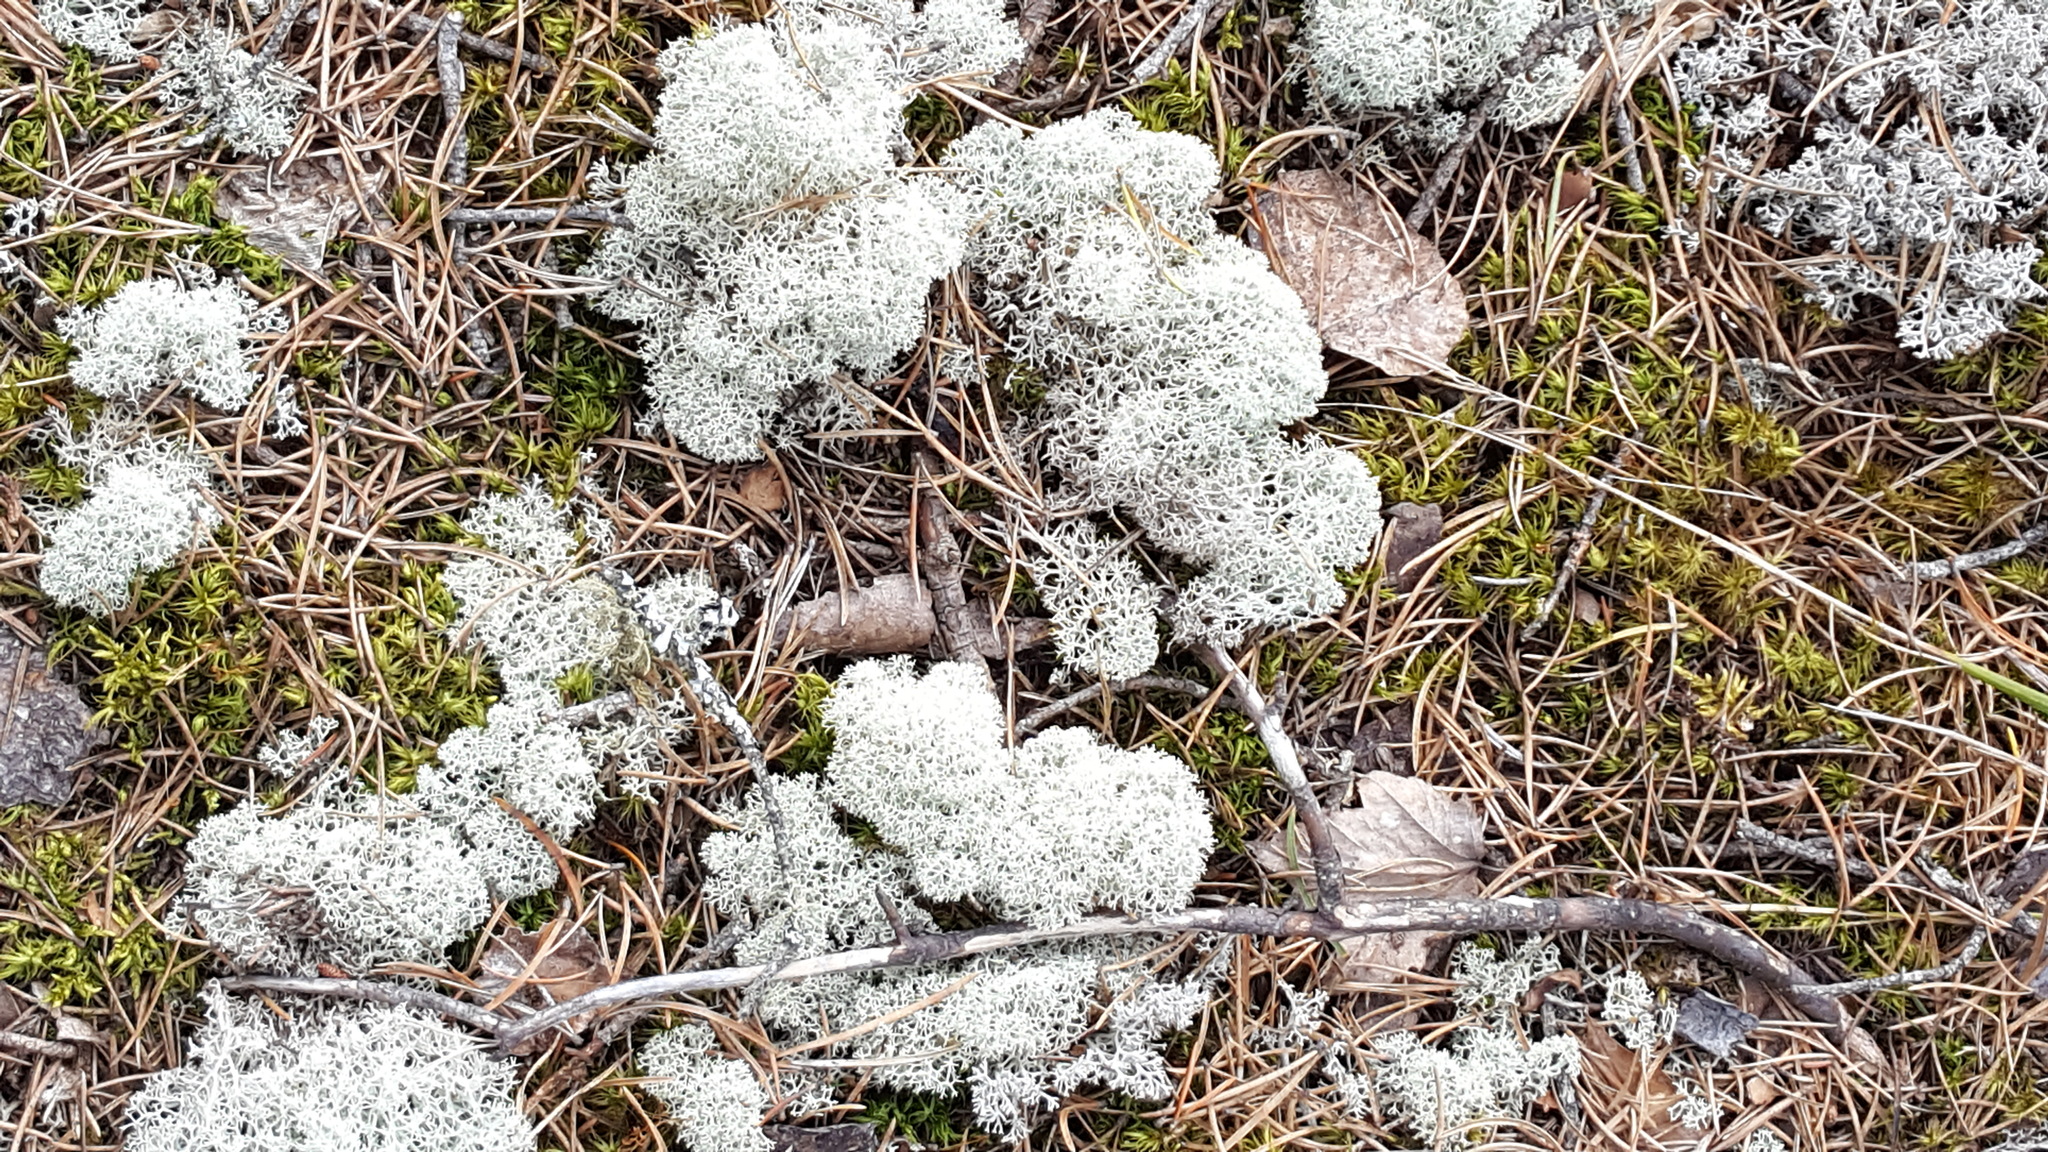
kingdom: Fungi
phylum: Ascomycota
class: Lecanoromycetes
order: Lecanorales
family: Cladoniaceae
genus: Cladonia
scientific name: Cladonia stellaris
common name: Star-tipped reindeer lichen
